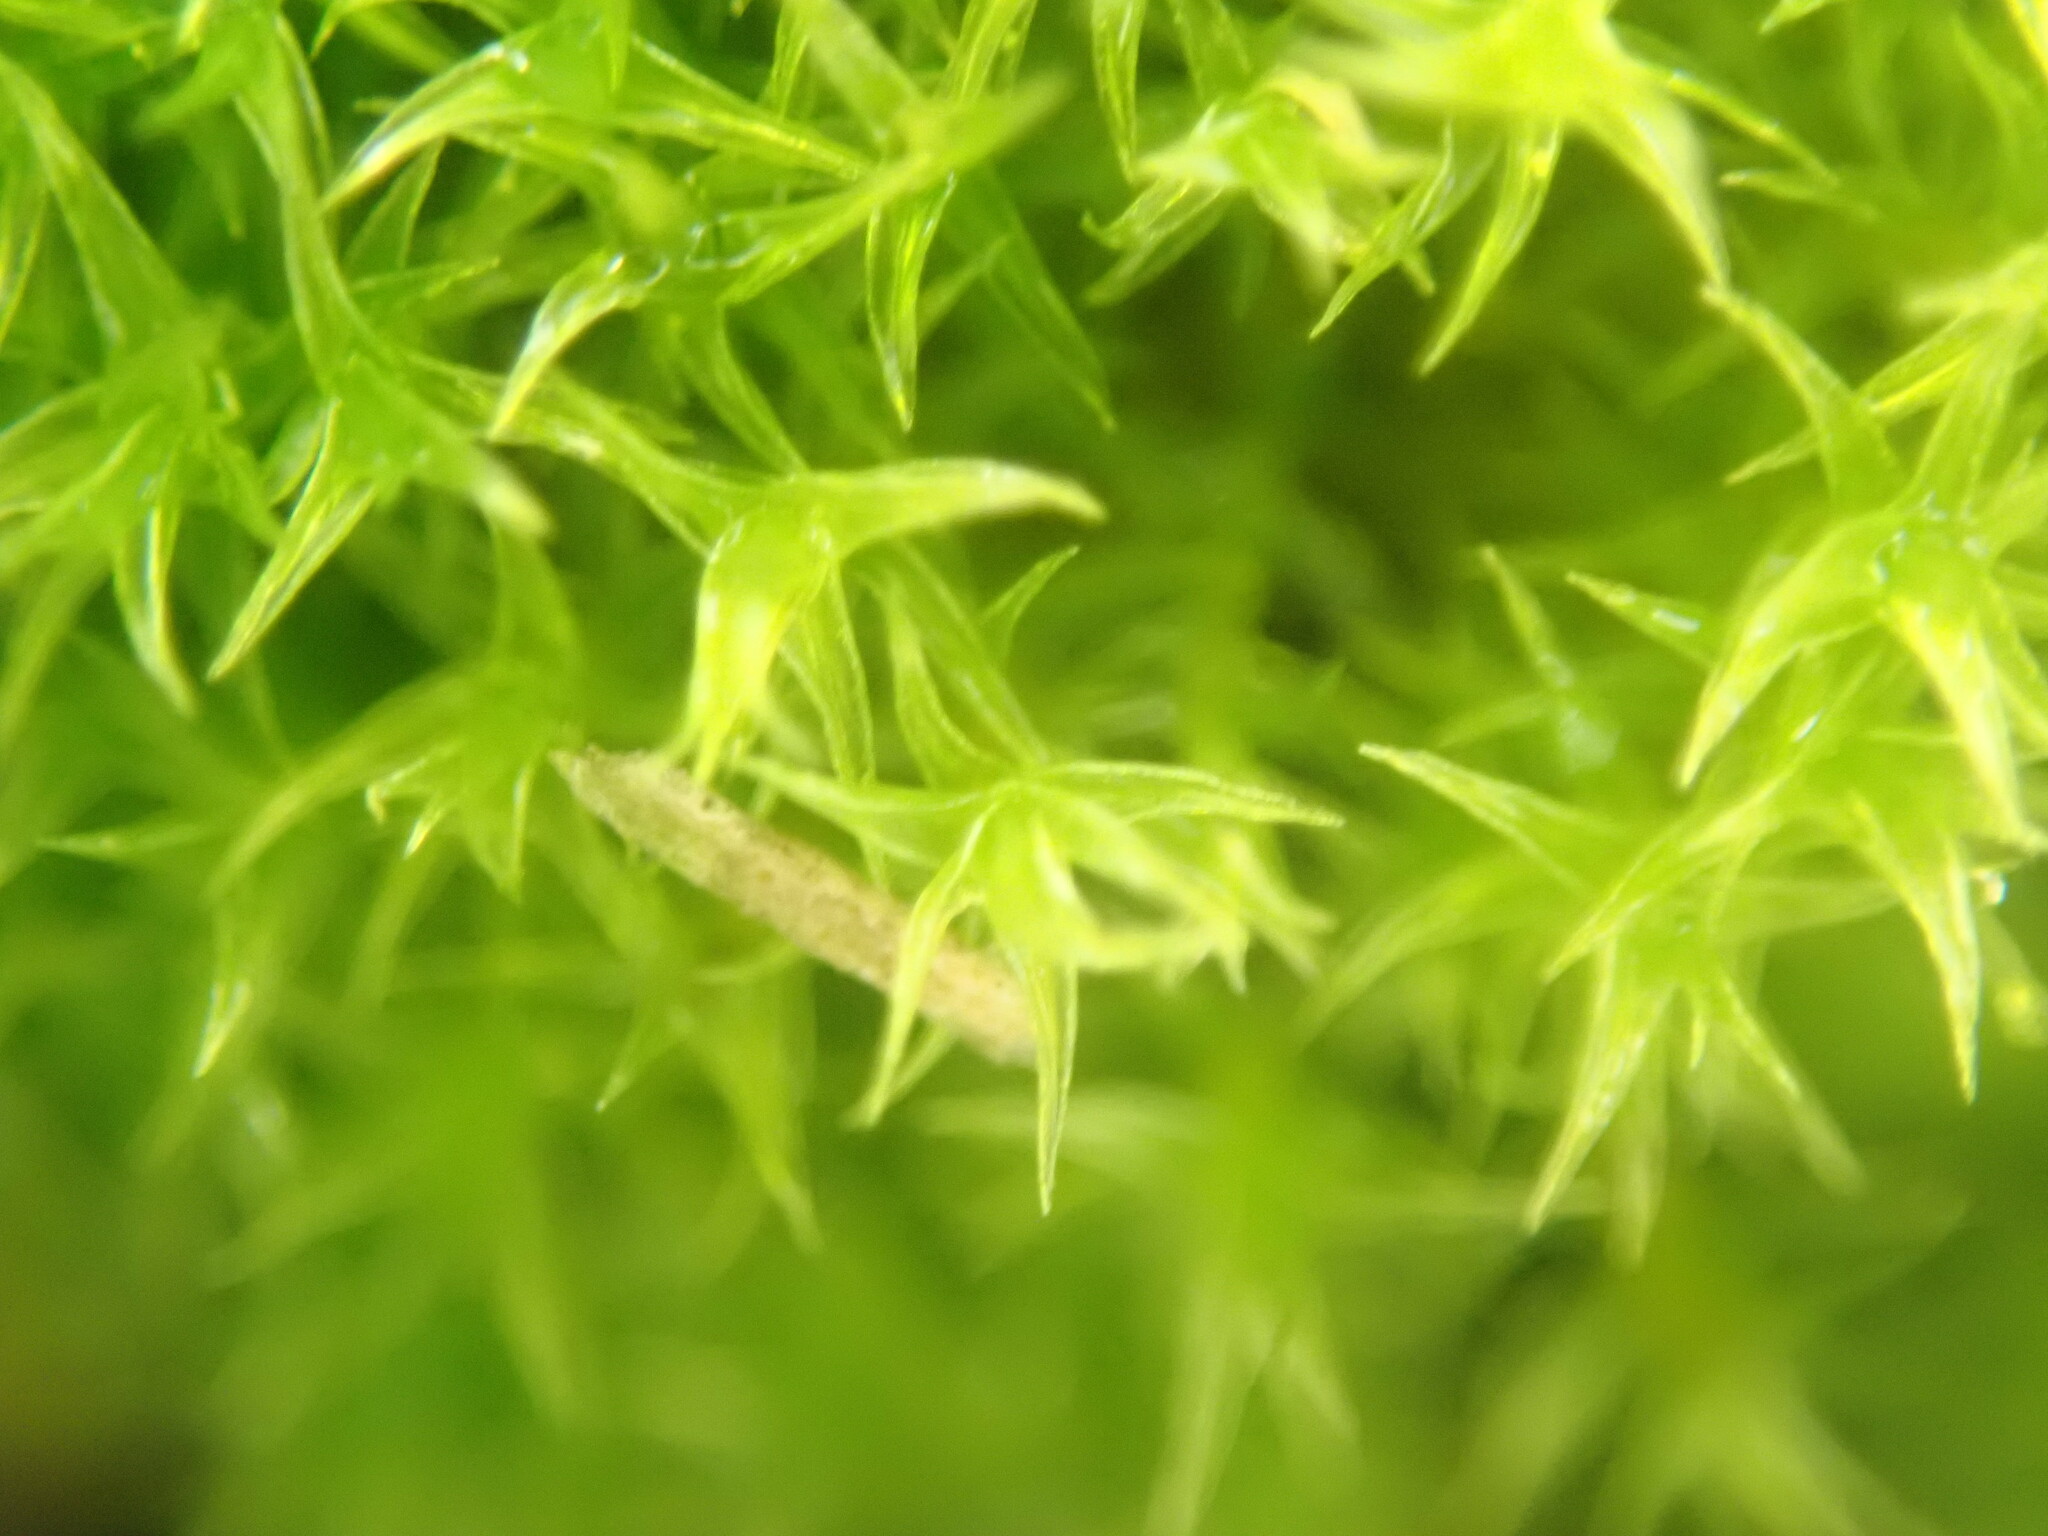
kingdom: Plantae
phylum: Bryophyta
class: Bryopsida
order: Dicranales
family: Ditrichaceae
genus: Ceratodon
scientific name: Ceratodon purpureus
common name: Redshank
